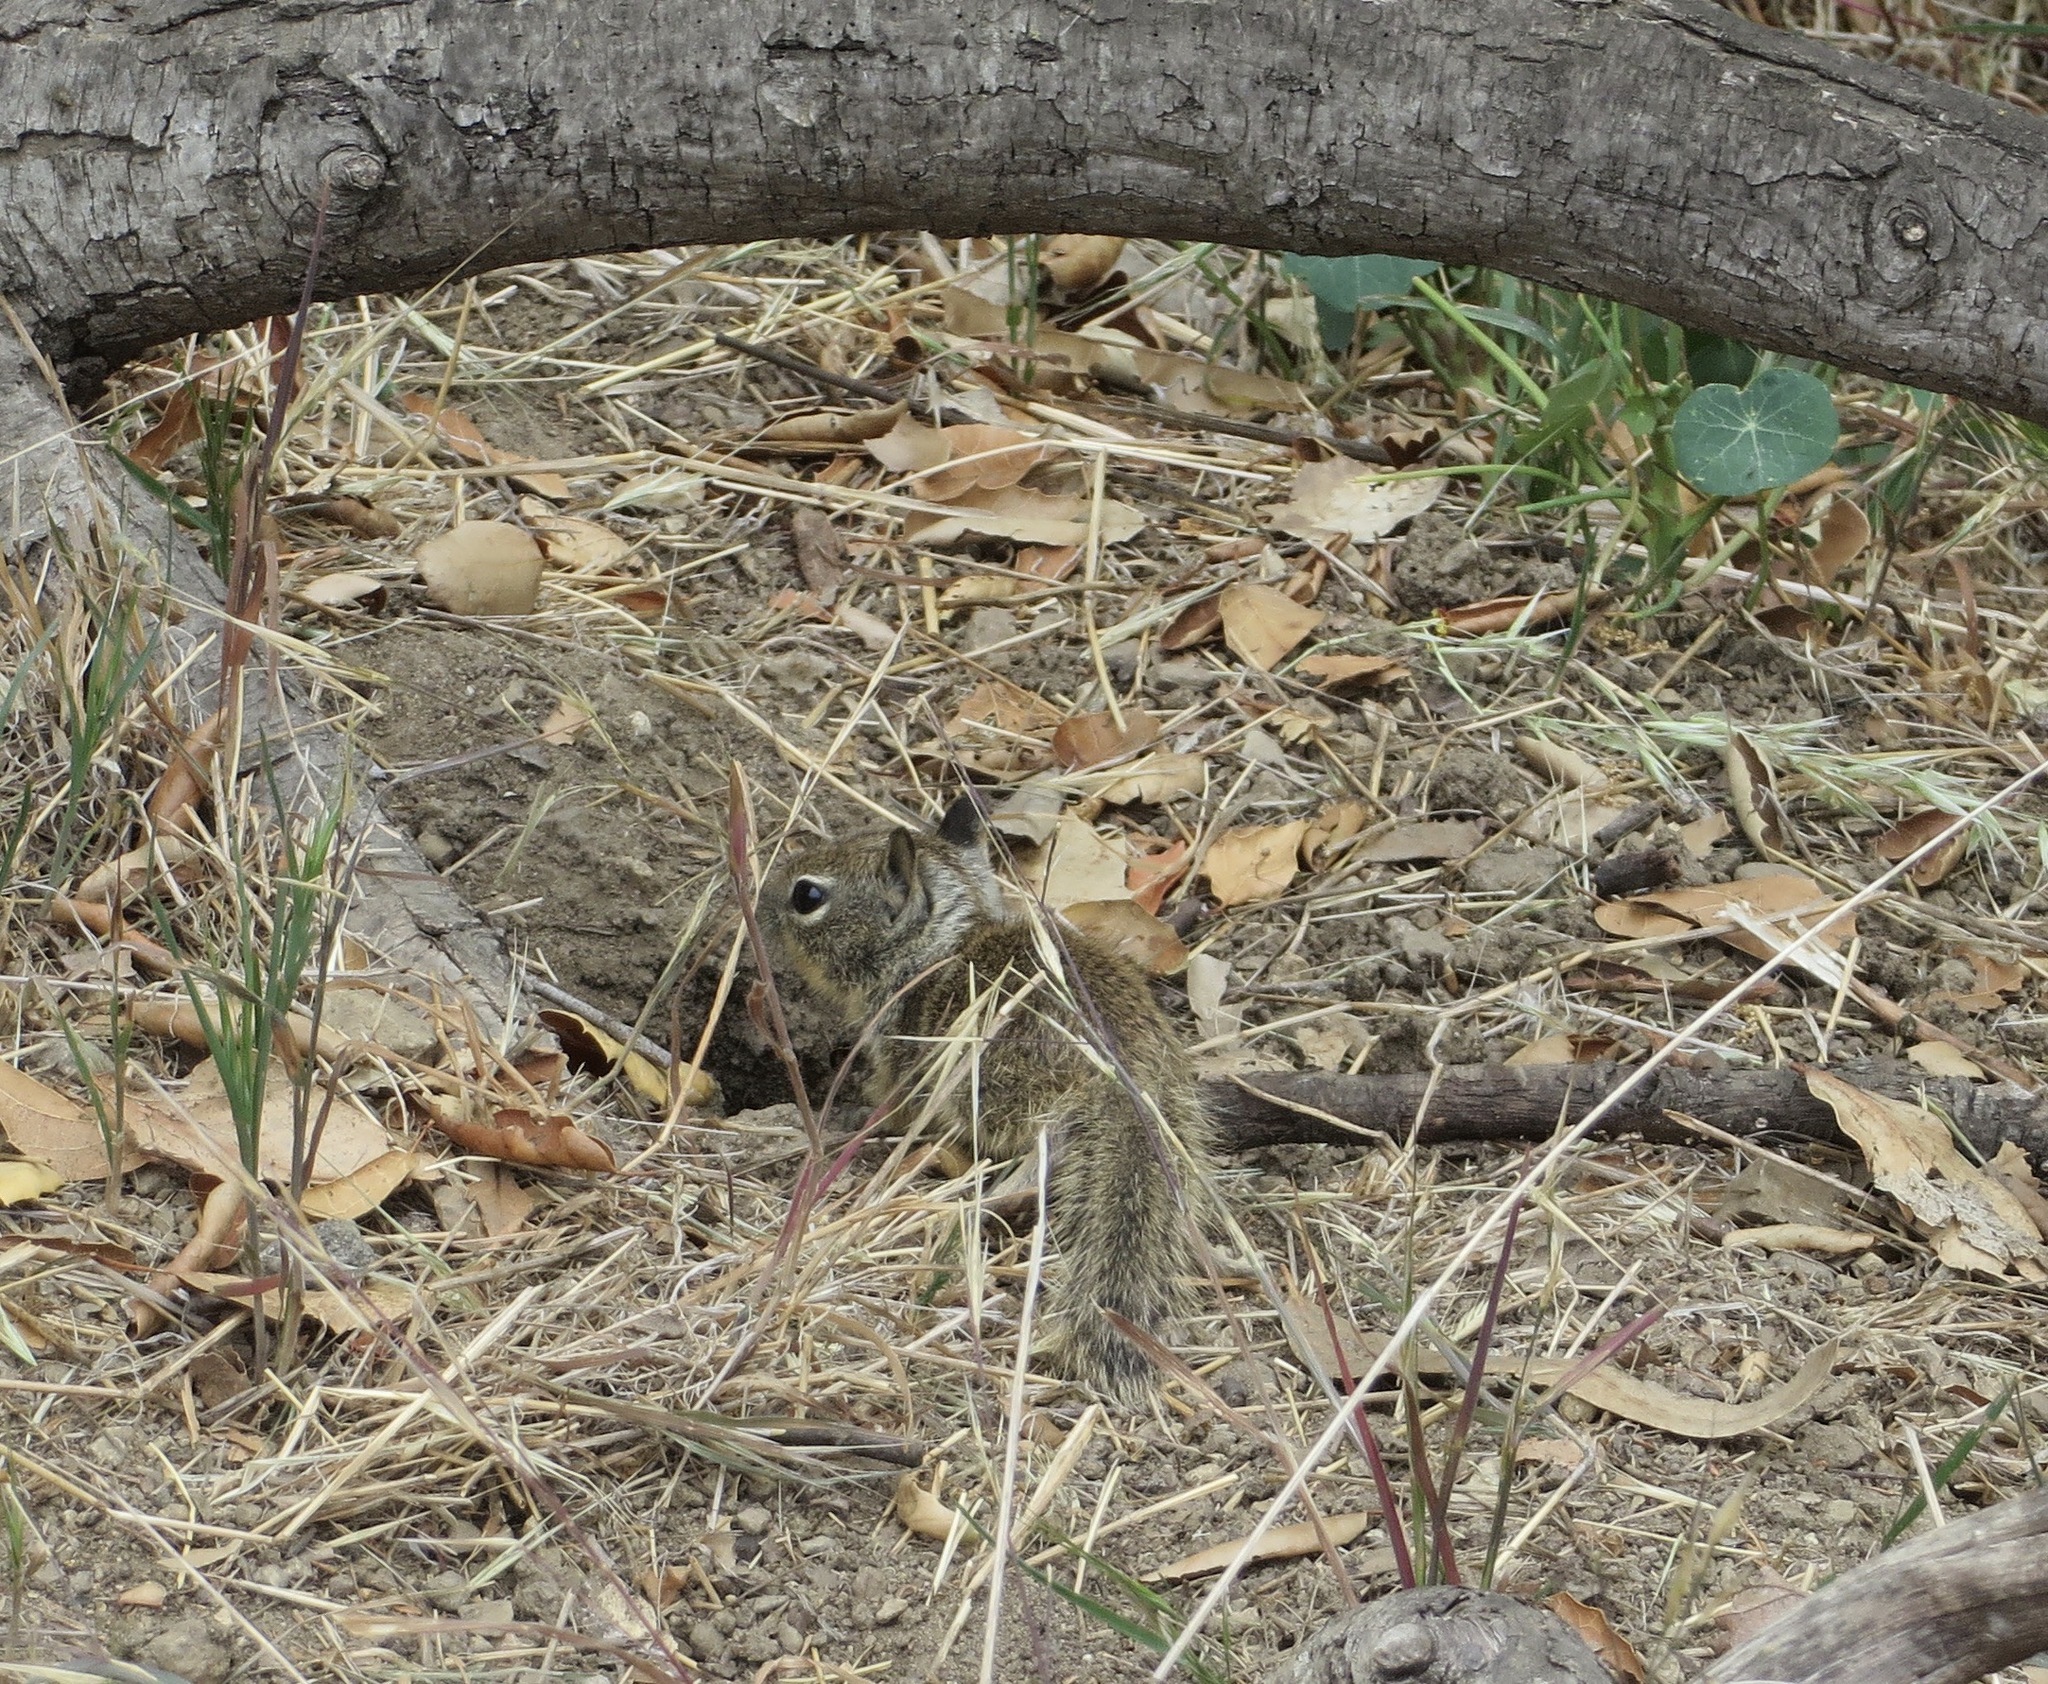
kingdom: Animalia
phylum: Chordata
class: Mammalia
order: Rodentia
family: Sciuridae
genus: Otospermophilus
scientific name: Otospermophilus beecheyi
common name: California ground squirrel
